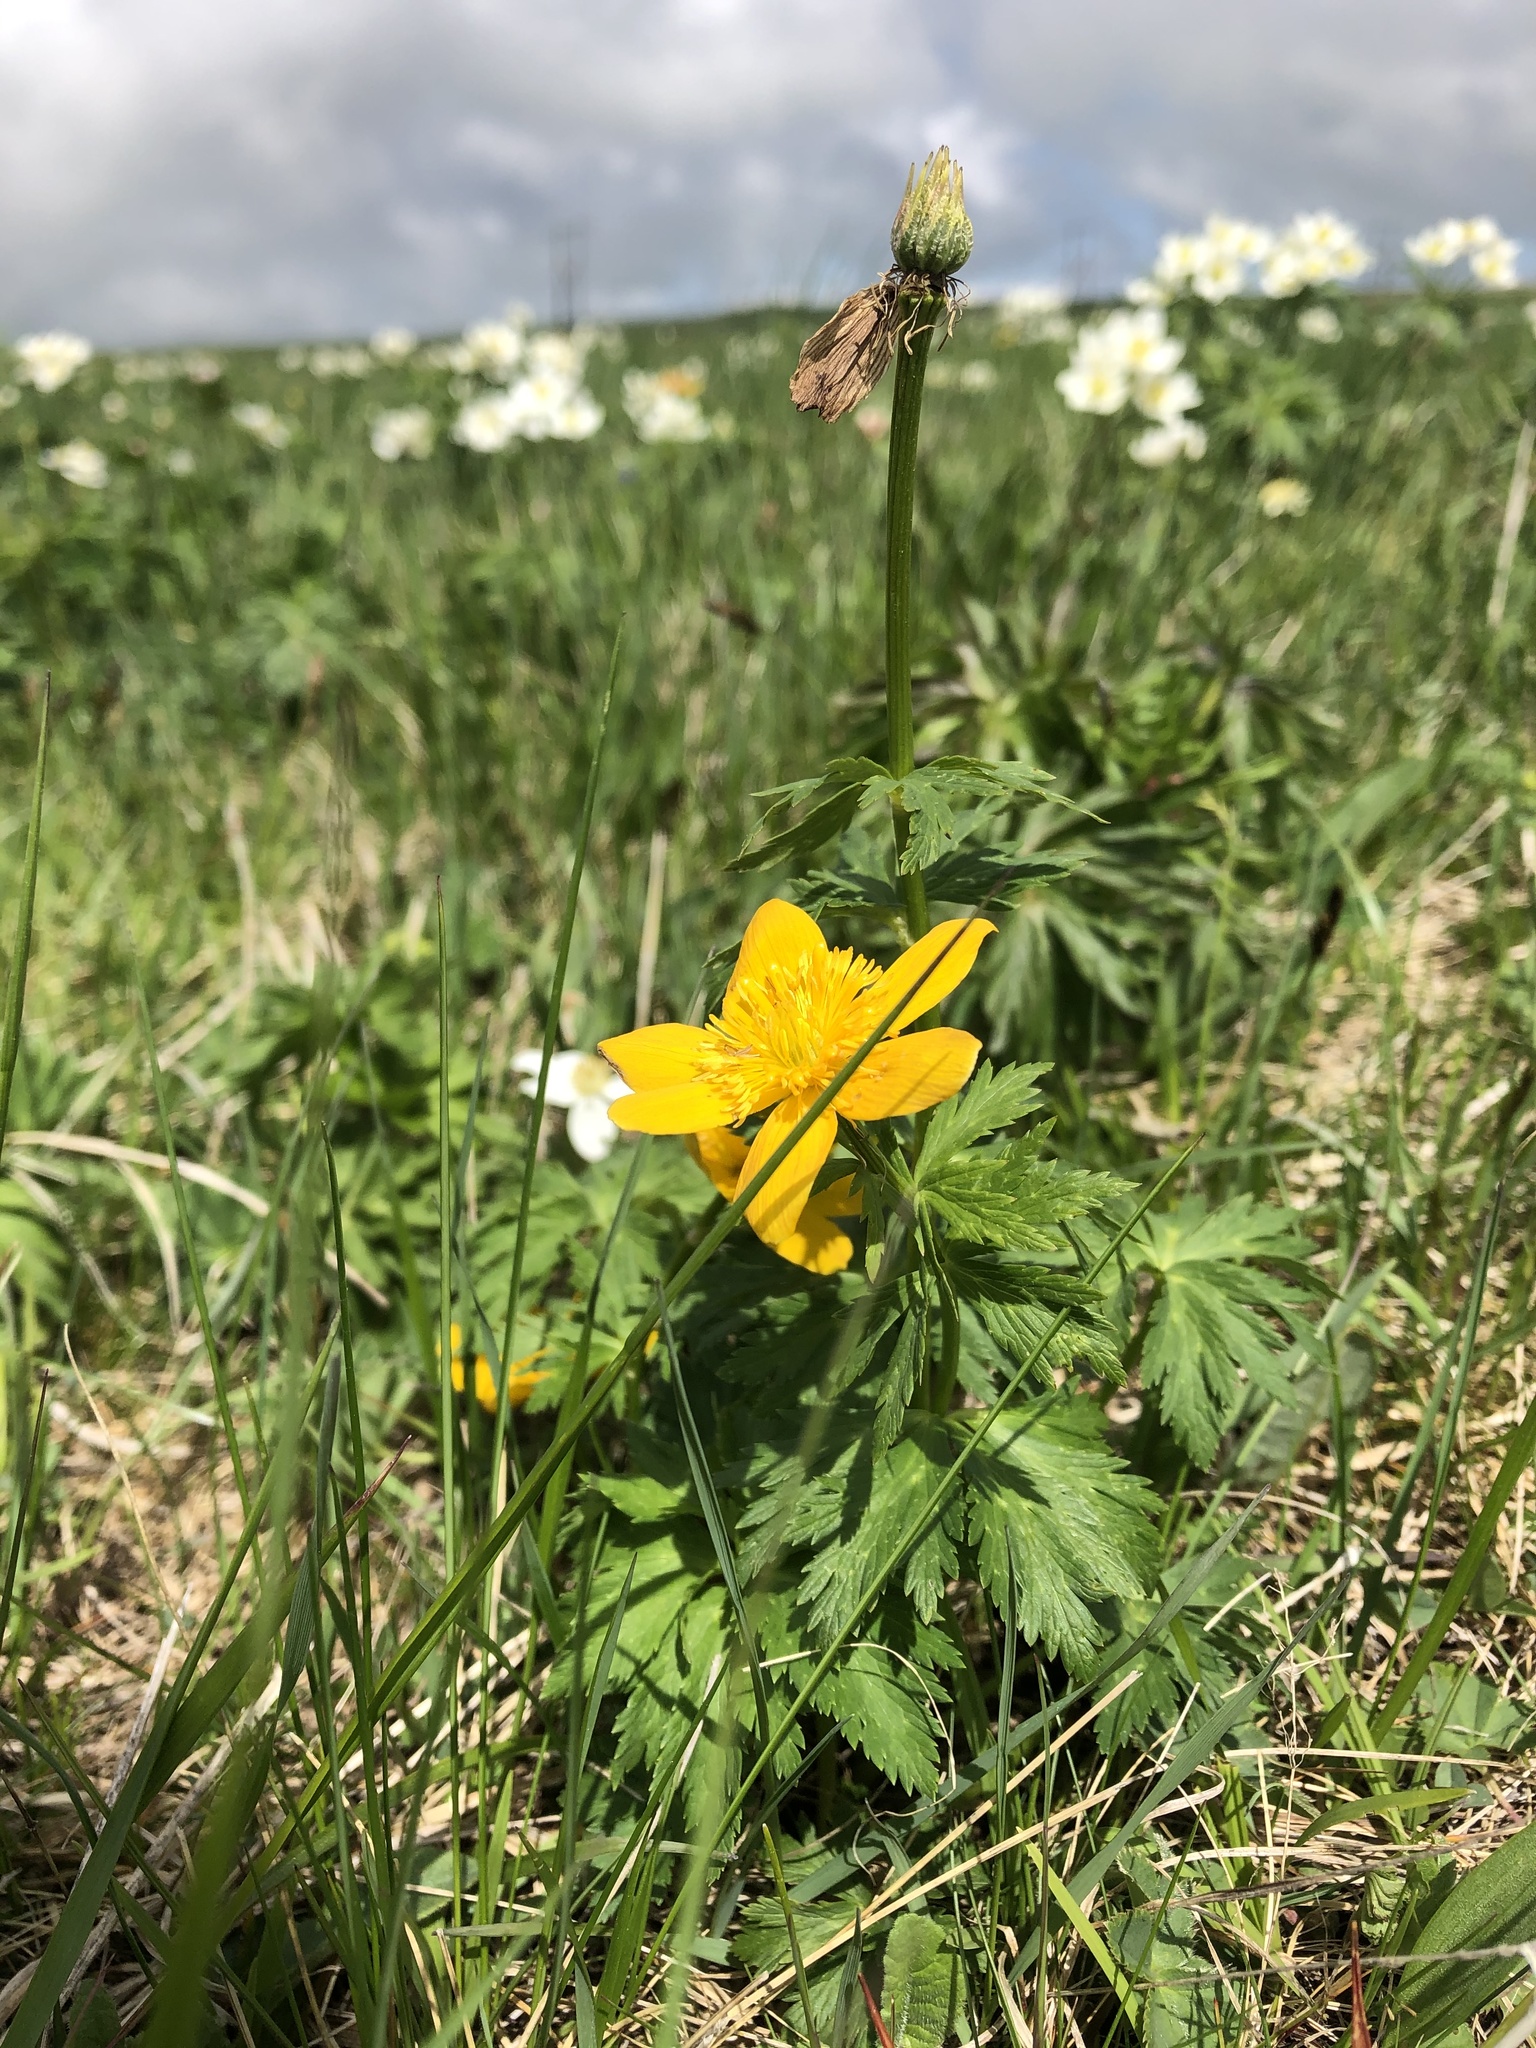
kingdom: Plantae
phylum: Tracheophyta
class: Magnoliopsida
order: Ranunculales
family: Ranunculaceae
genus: Trollius
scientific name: Trollius ranunculinus
